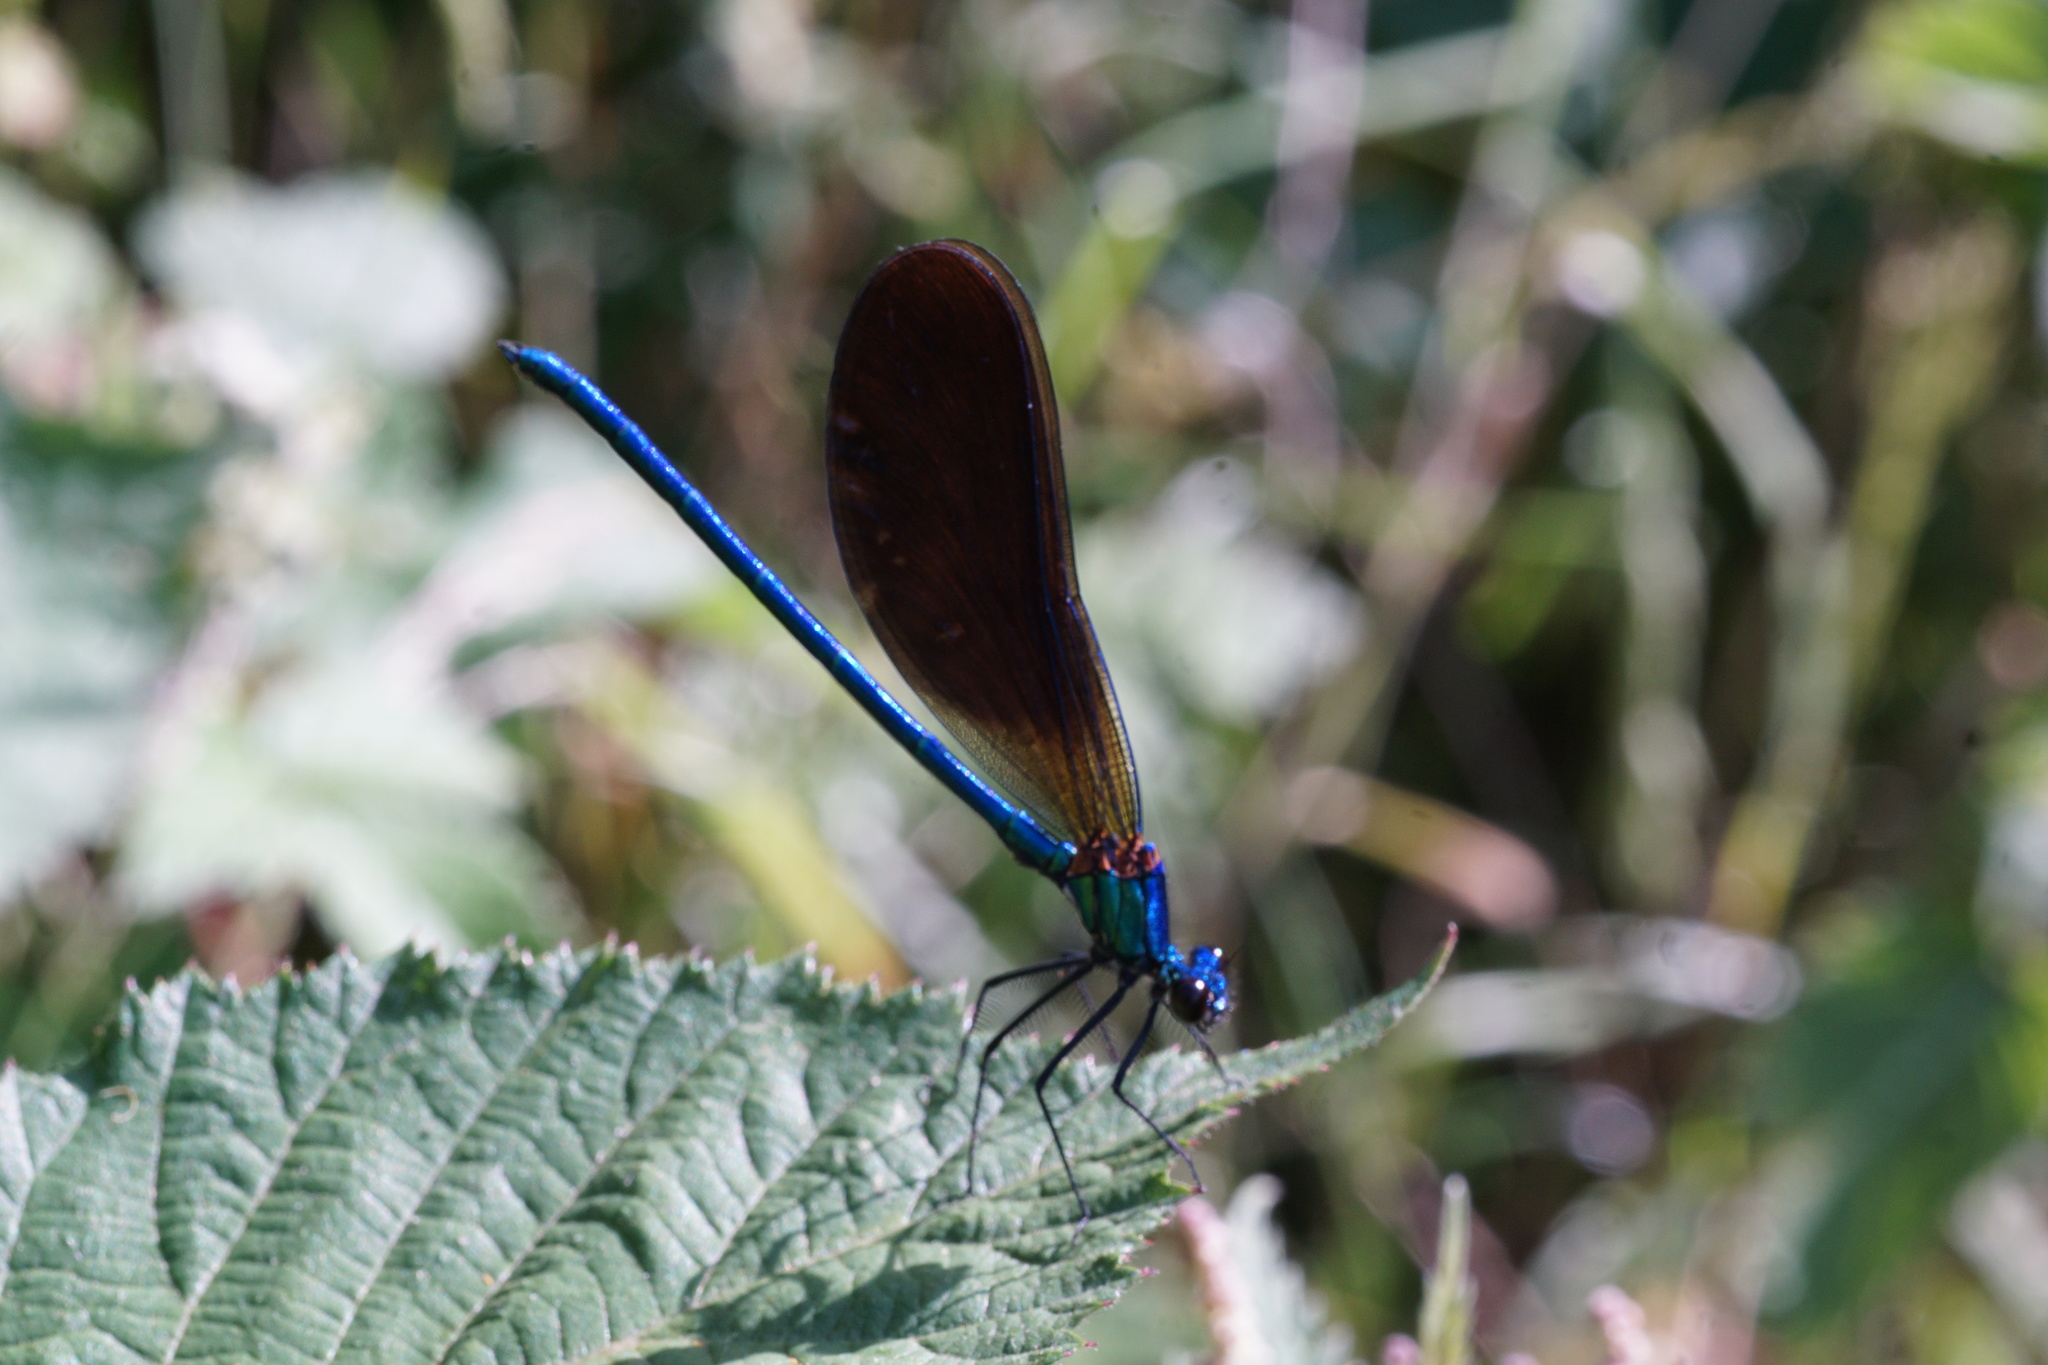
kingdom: Animalia
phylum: Arthropoda
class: Insecta
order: Odonata
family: Calopterygidae
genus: Calopteryx
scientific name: Calopteryx virgo
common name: Beautiful demoiselle
